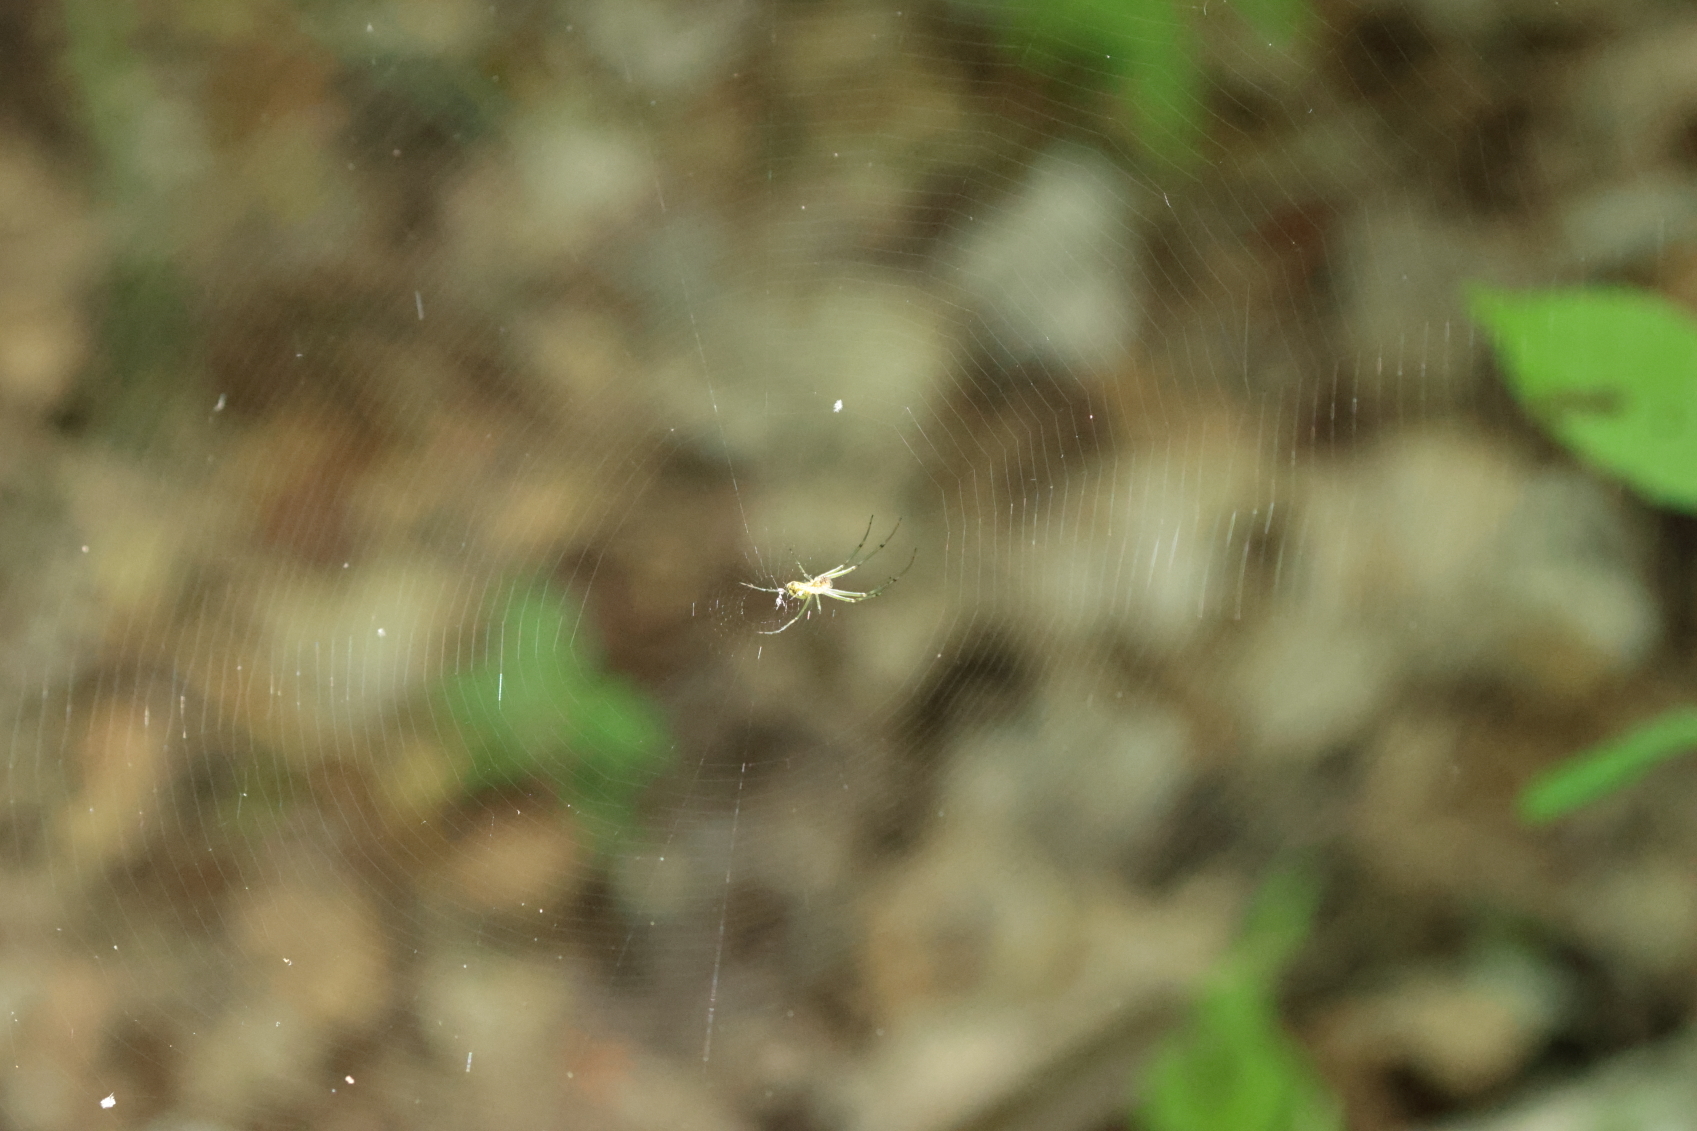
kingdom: Animalia
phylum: Arthropoda
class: Arachnida
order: Araneae
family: Tetragnathidae
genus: Leucauge
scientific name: Leucauge venusta
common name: Longjawed orb weavers
